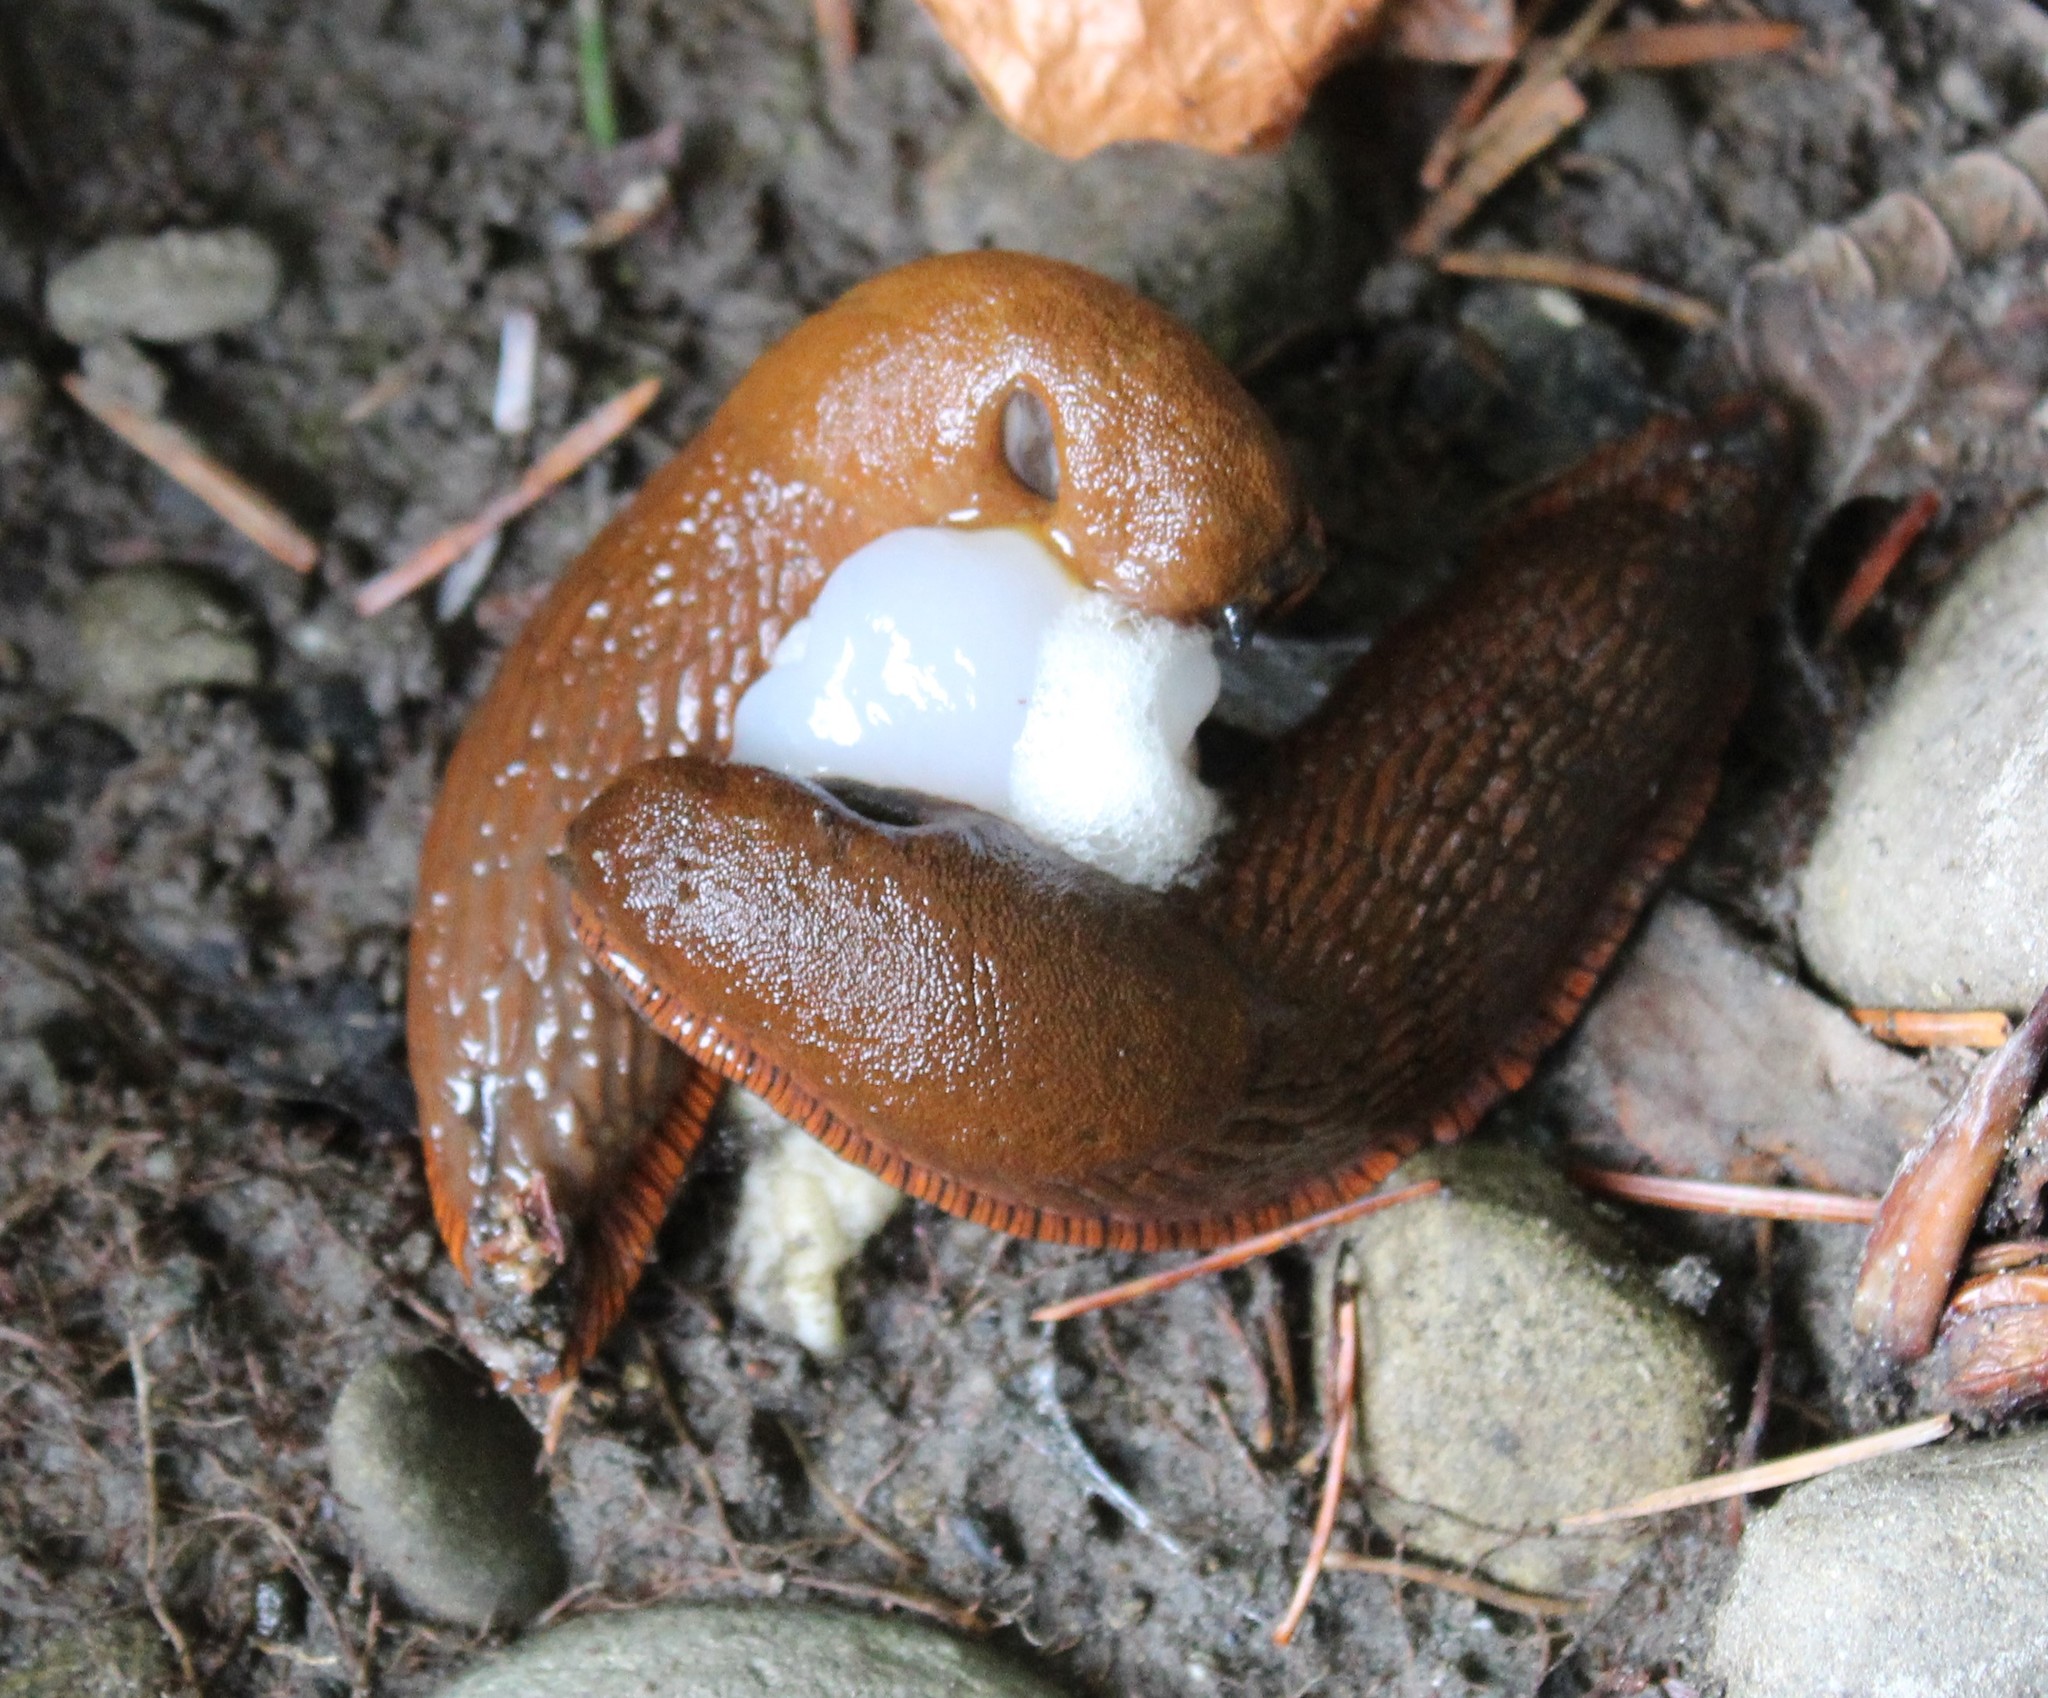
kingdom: Animalia
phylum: Mollusca
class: Gastropoda
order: Stylommatophora
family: Arionidae
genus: Arion
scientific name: Arion rufus
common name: Chocolate arion
